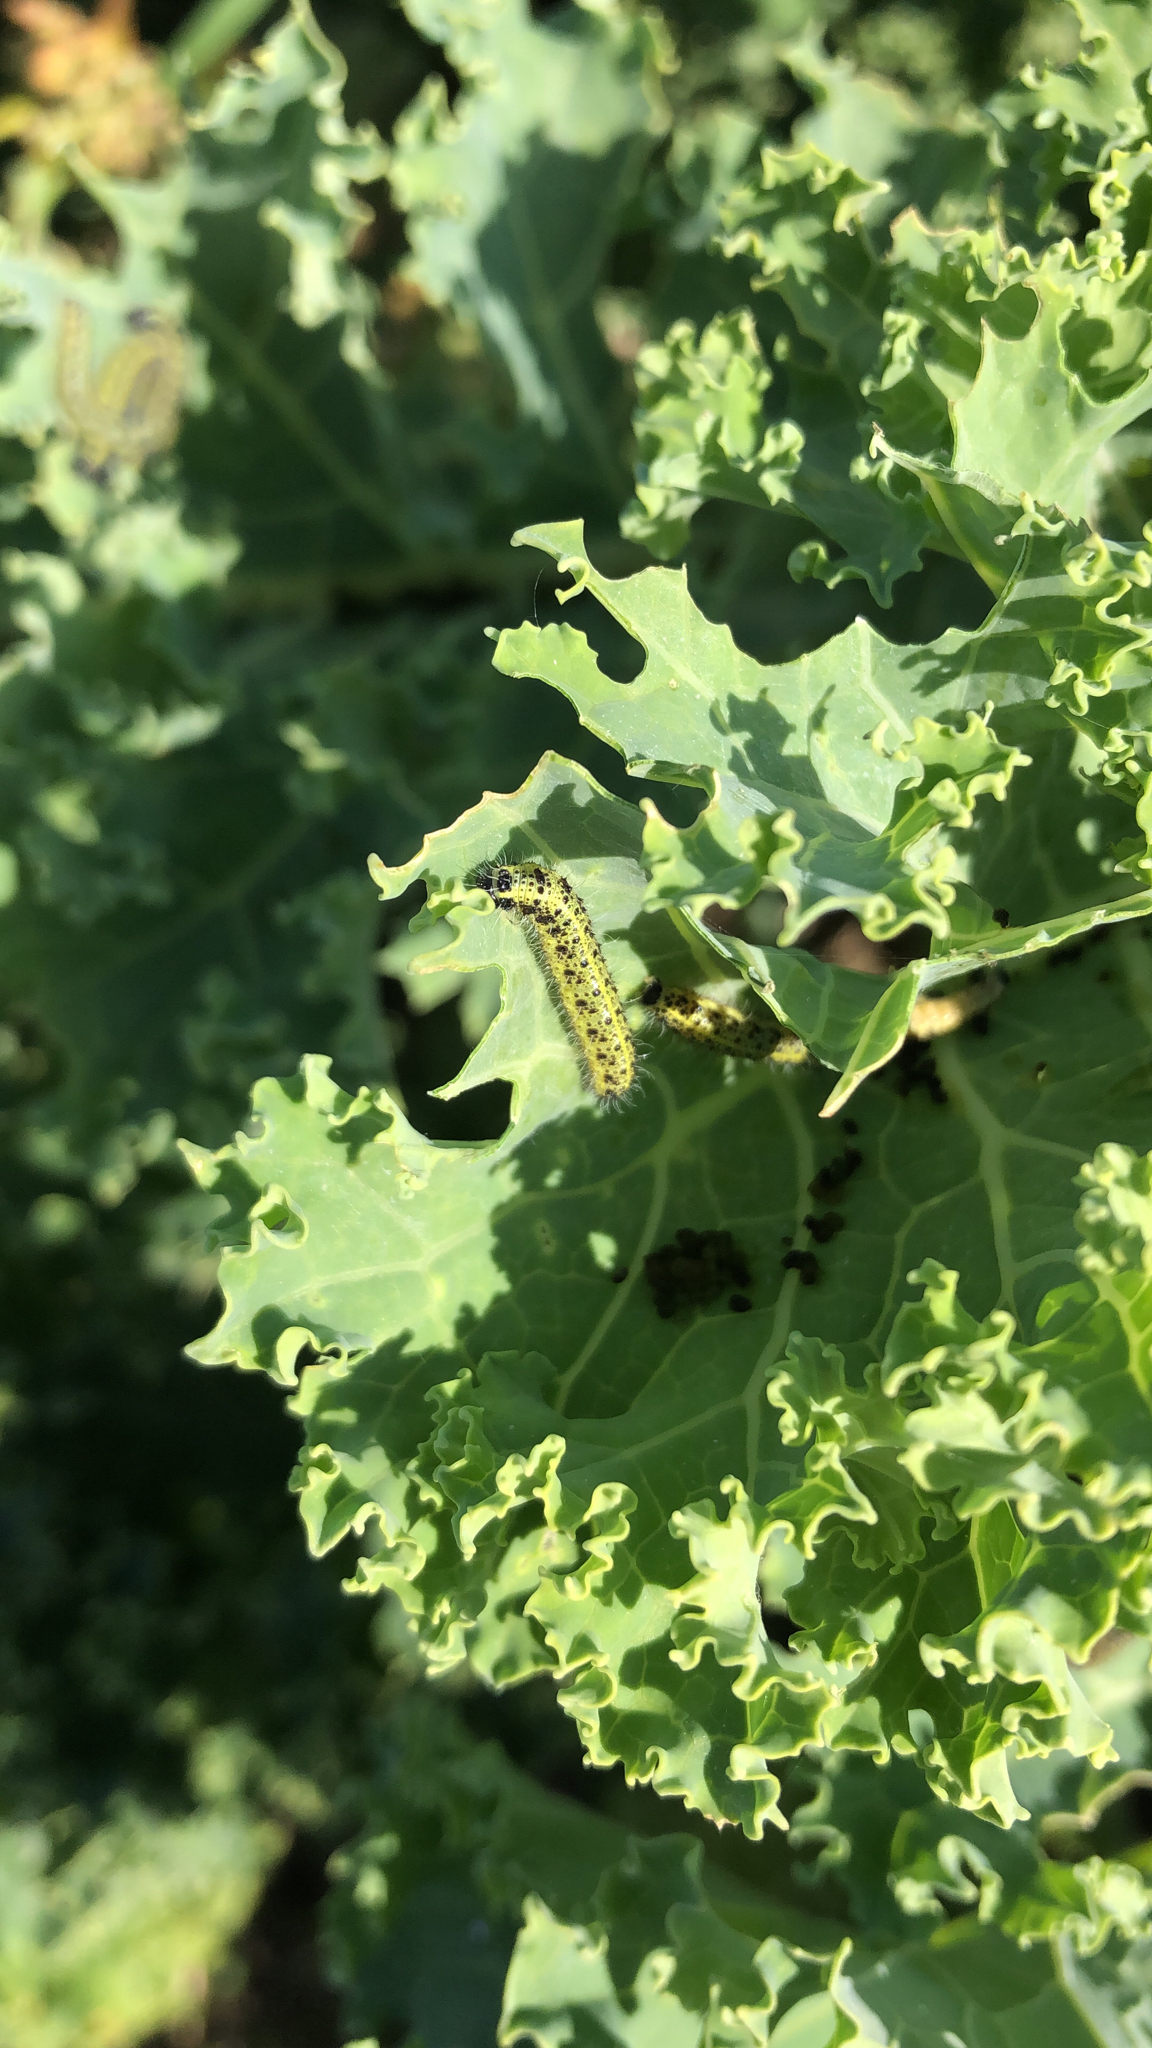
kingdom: Animalia
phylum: Arthropoda
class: Insecta
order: Lepidoptera
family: Pieridae
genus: Pieris
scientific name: Pieris brassicae
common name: Large white
